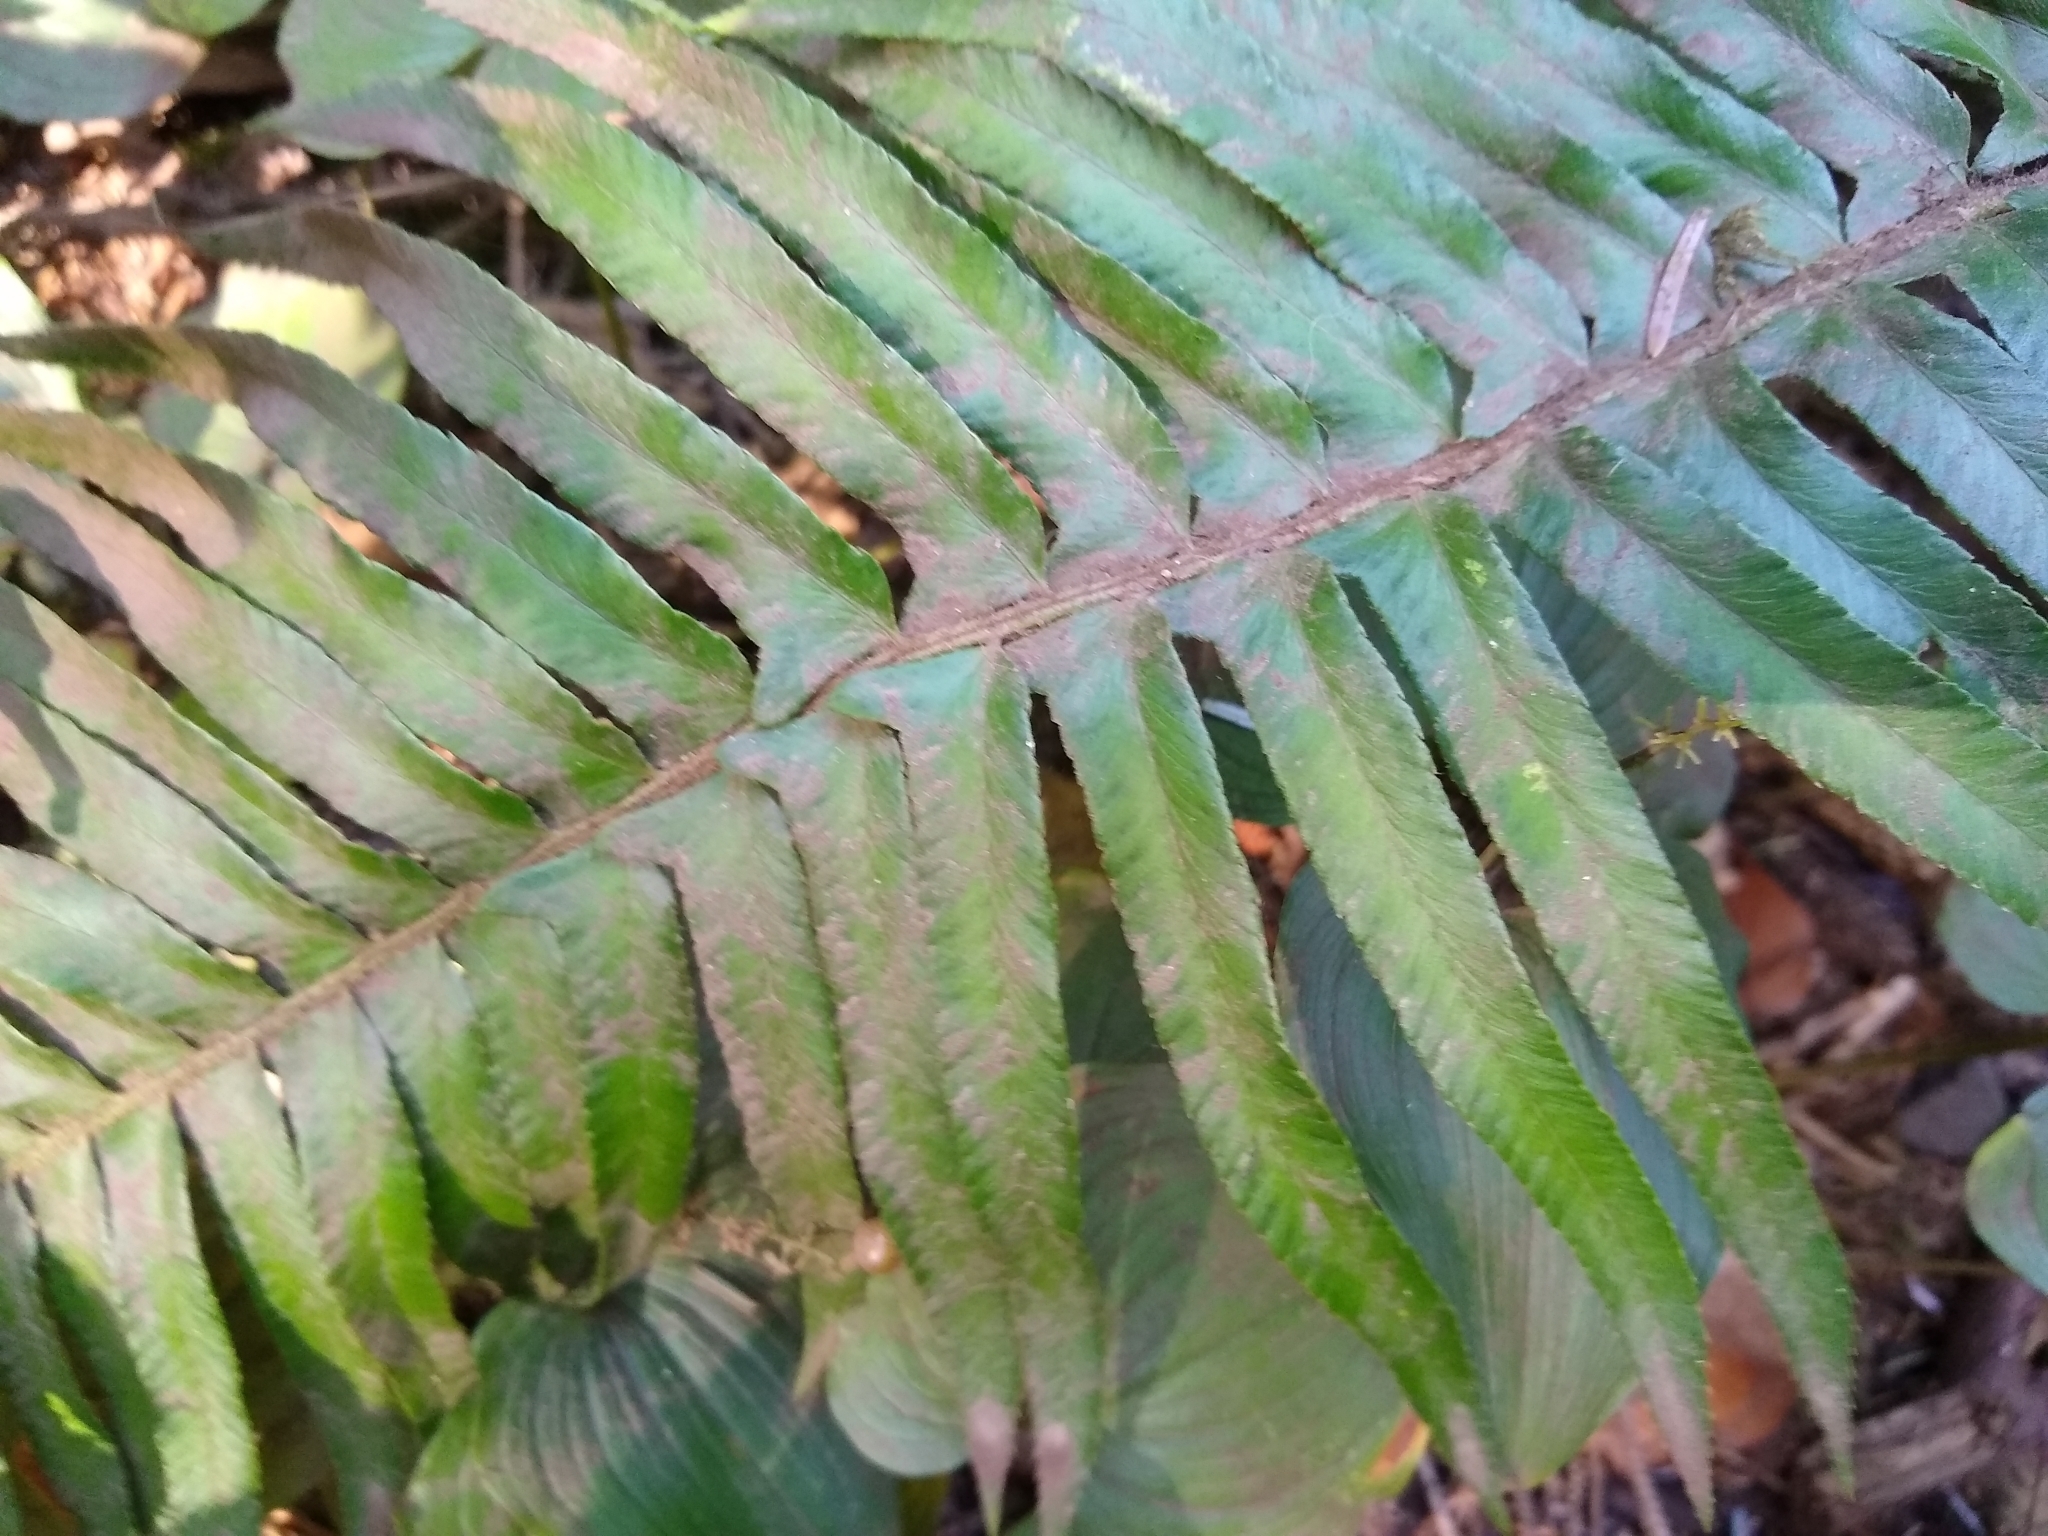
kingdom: Plantae
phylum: Tracheophyta
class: Polypodiopsida
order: Polypodiales
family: Dryopteridaceae
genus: Polystichum
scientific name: Polystichum munitum
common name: Western sword-fern
